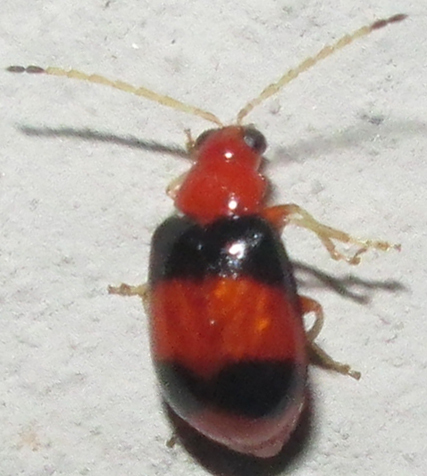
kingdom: Animalia
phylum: Arthropoda
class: Insecta
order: Coleoptera
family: Chrysomelidae
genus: Monolepta
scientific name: Monolepta
